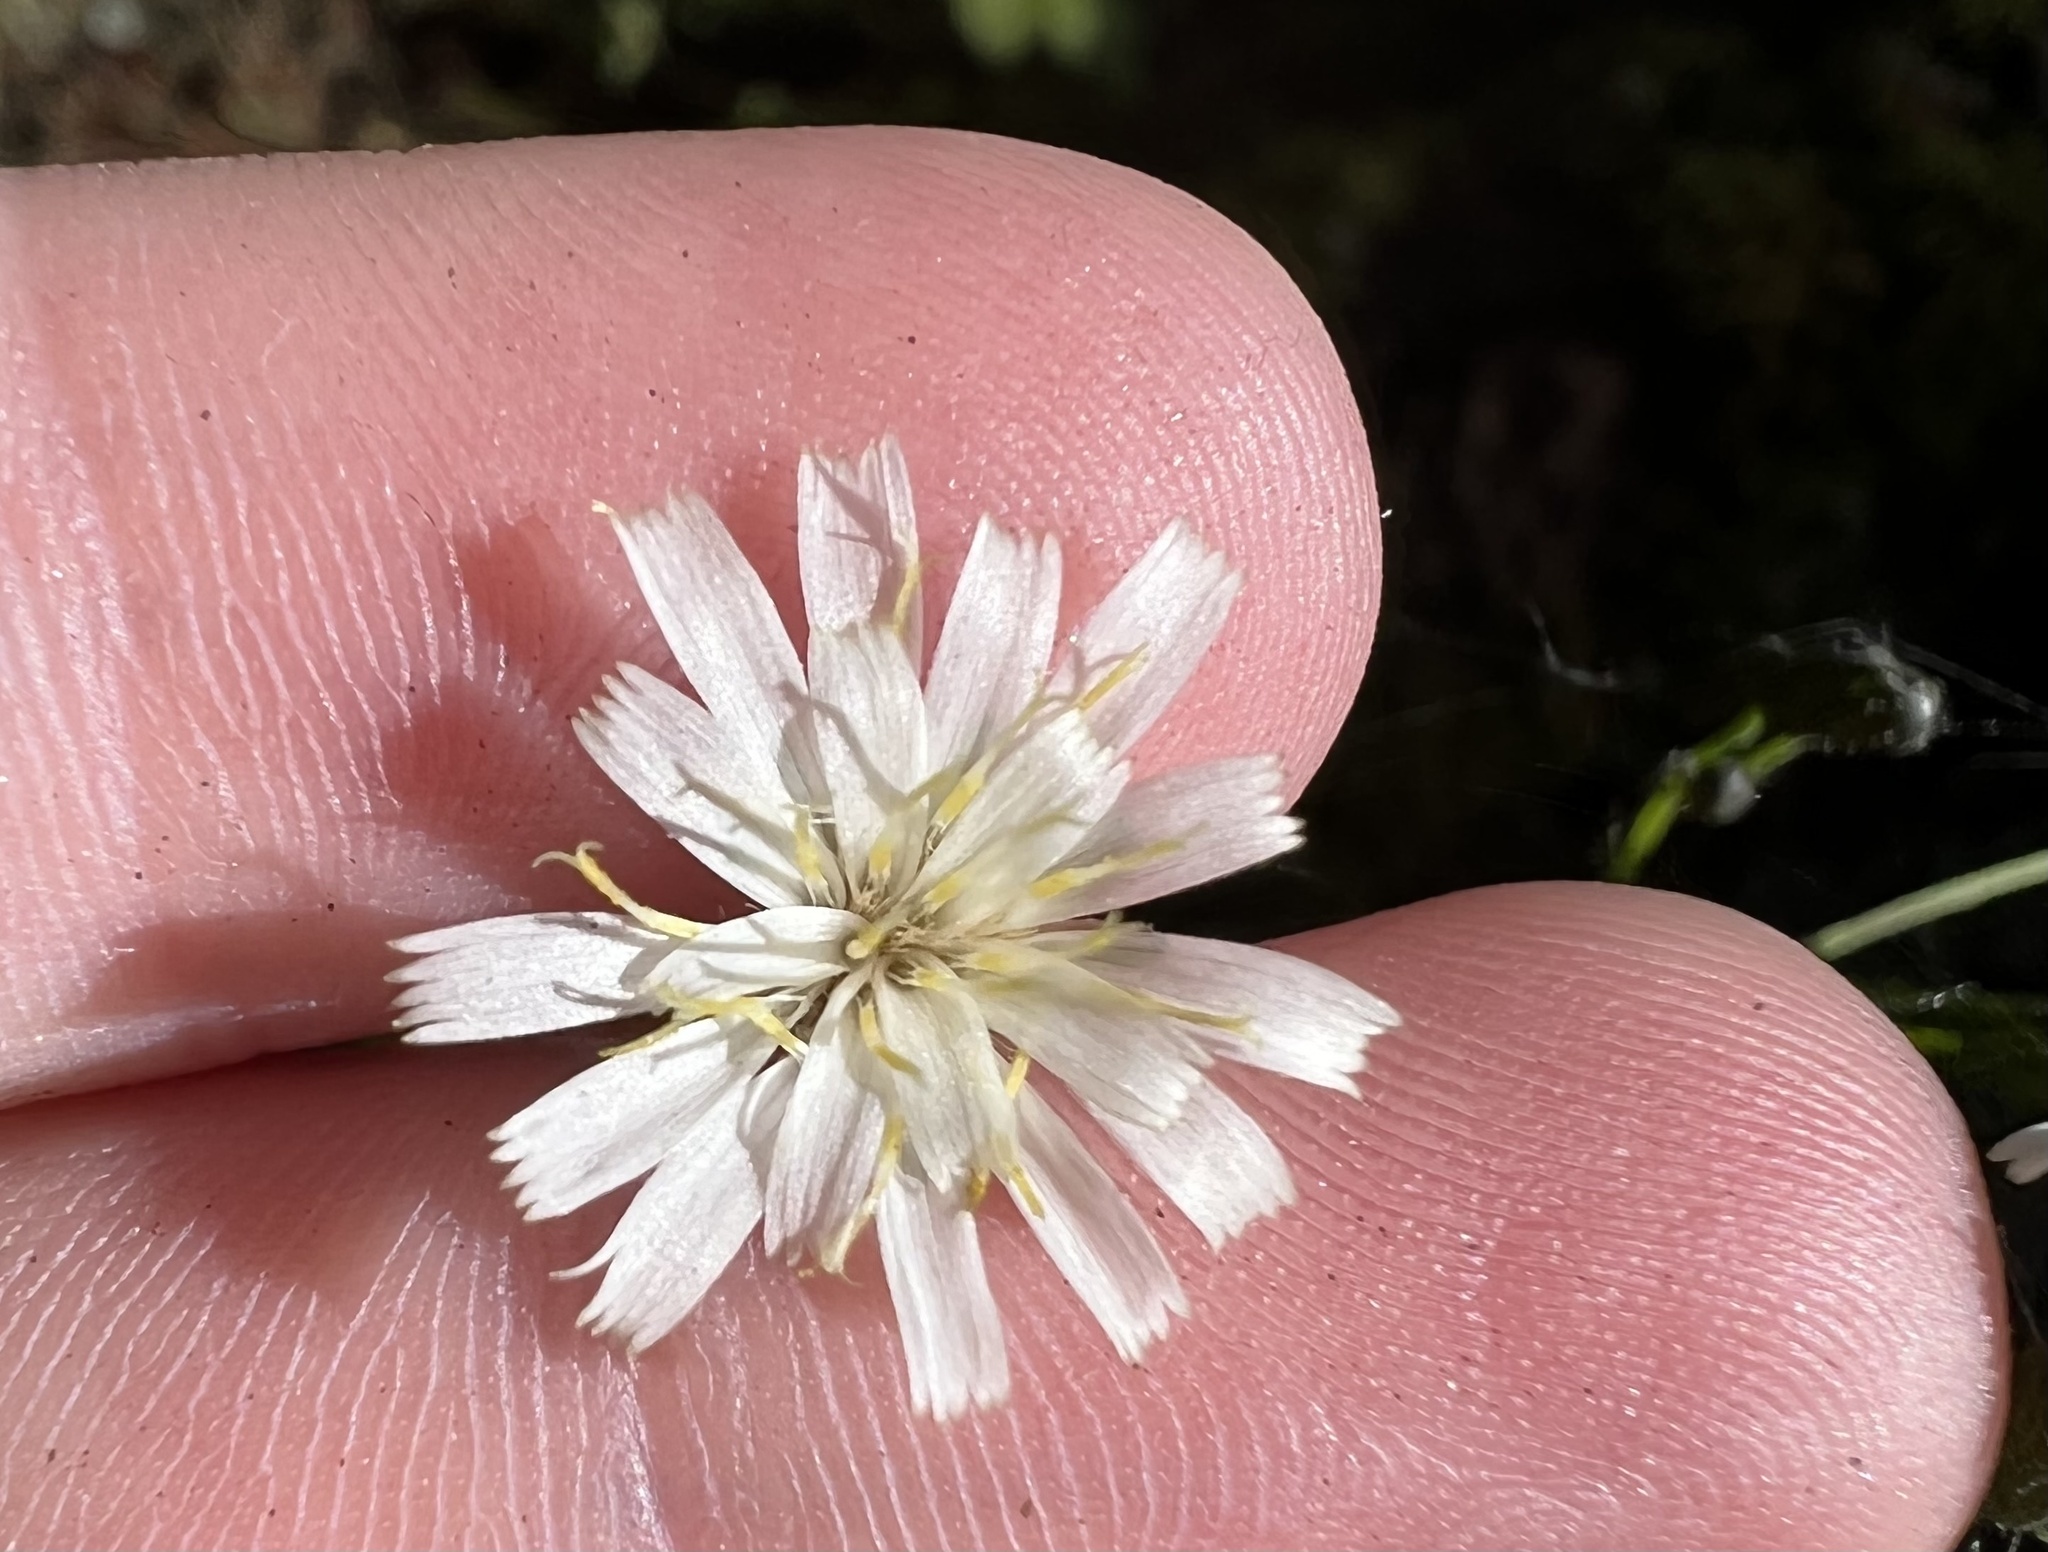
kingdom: Plantae
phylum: Tracheophyta
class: Magnoliopsida
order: Asterales
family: Asteraceae
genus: Hieracium
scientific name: Hieracium albiflorum
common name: White hawkweed
